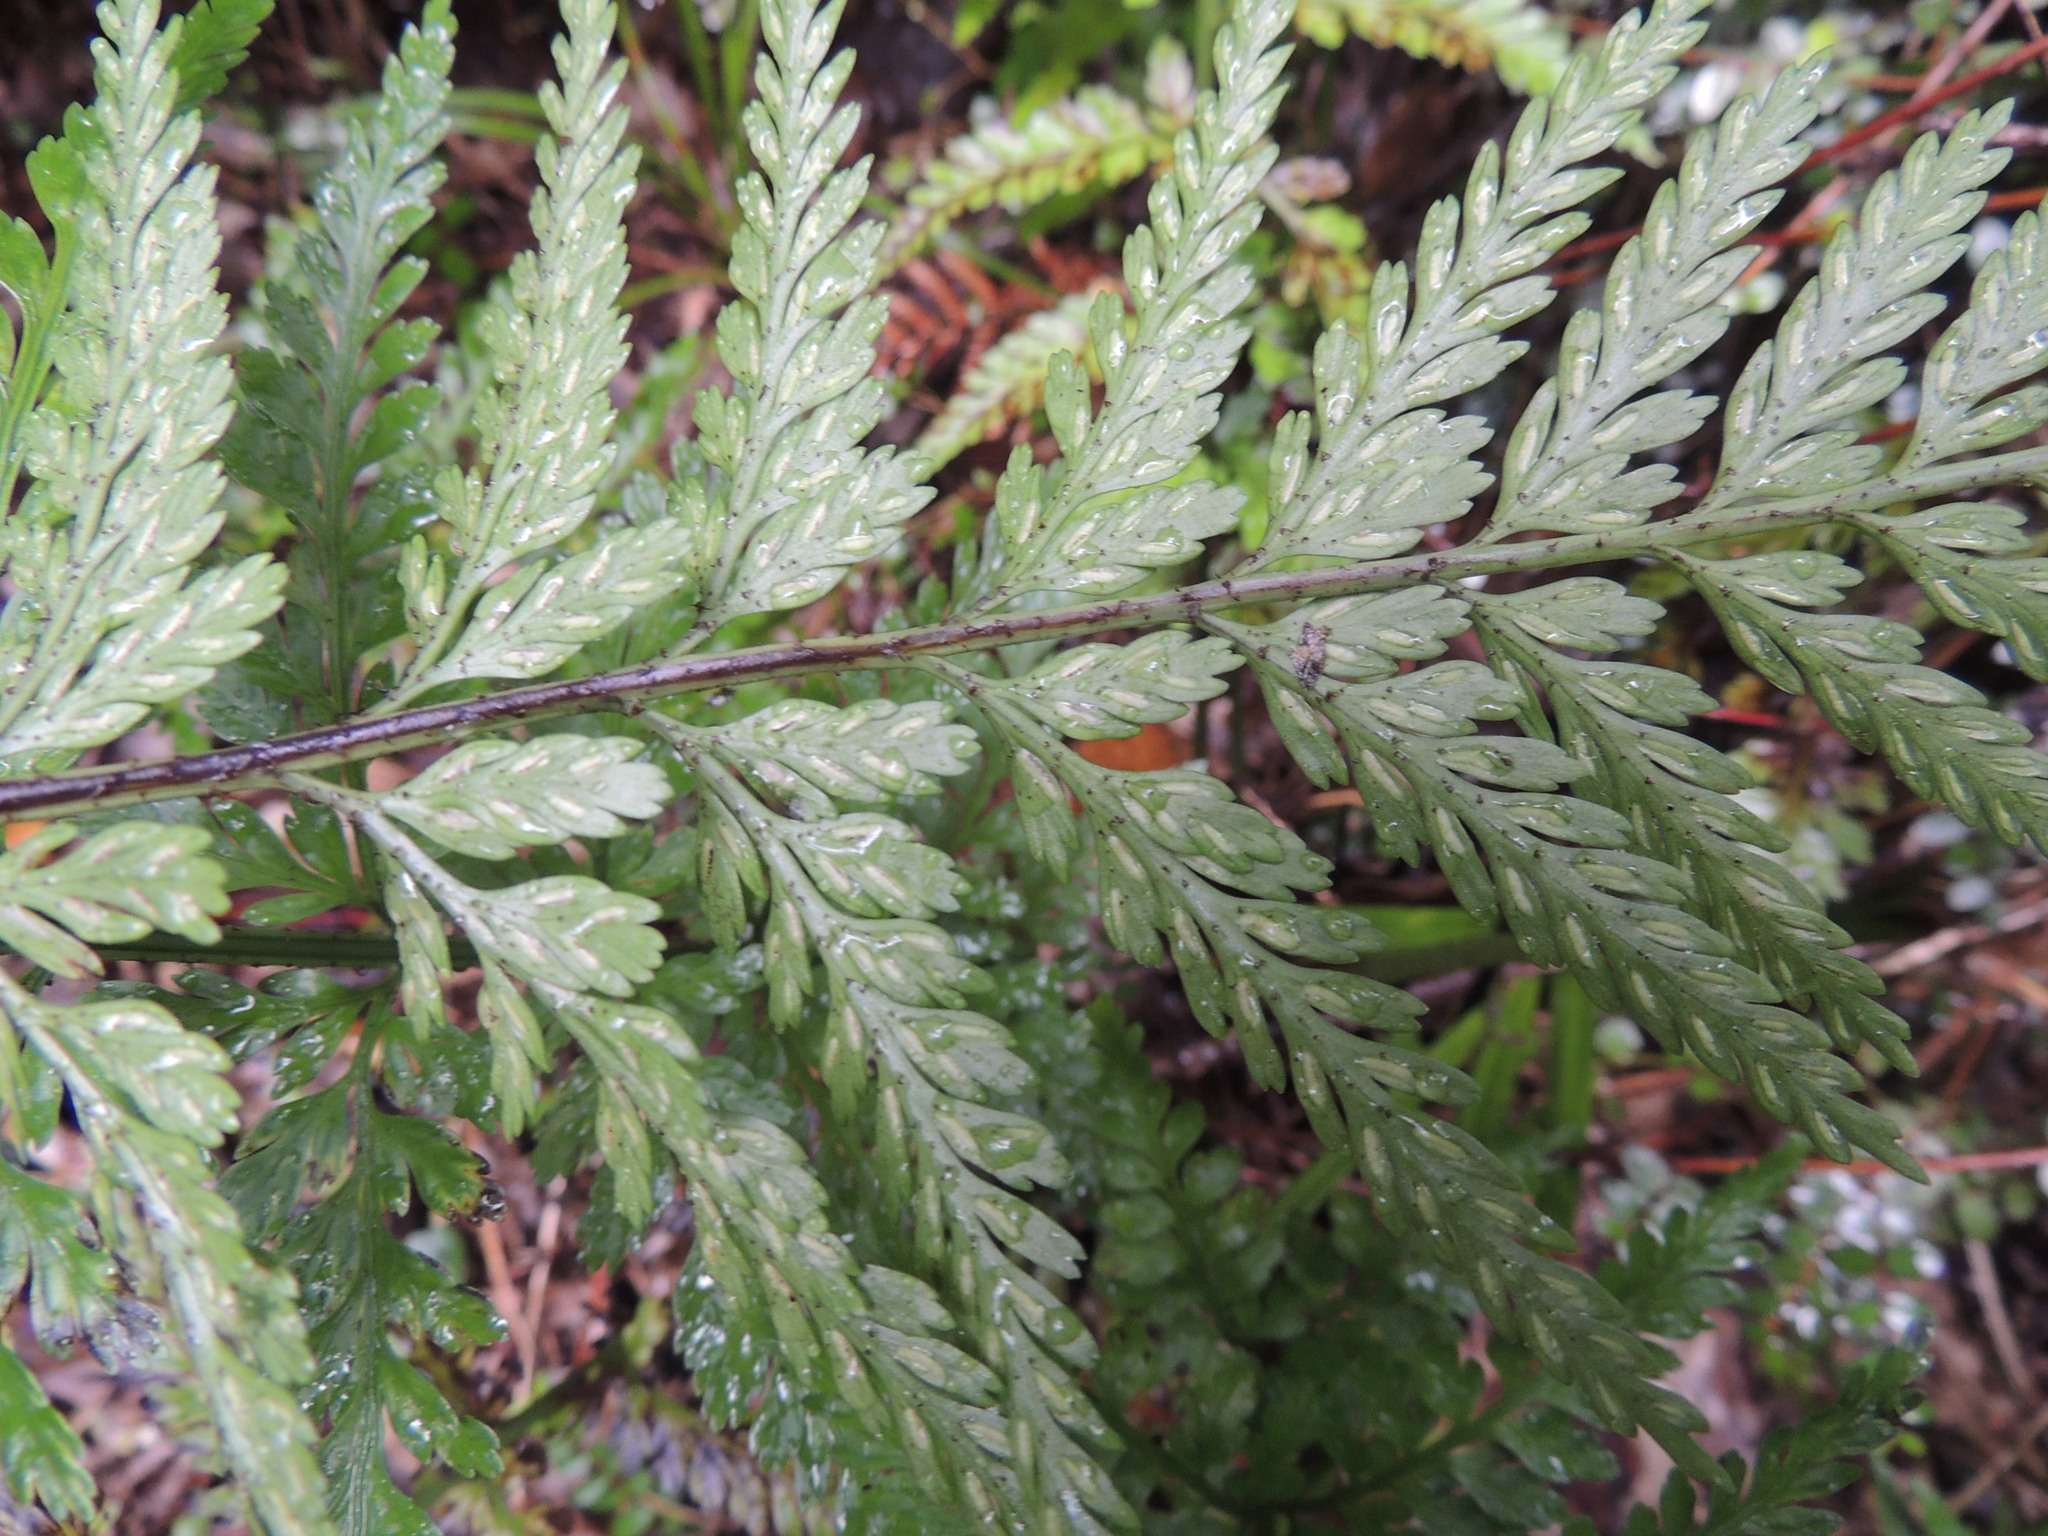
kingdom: Plantae
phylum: Tracheophyta
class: Polypodiopsida
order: Polypodiales
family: Aspleniaceae
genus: Asplenium
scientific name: Asplenium
